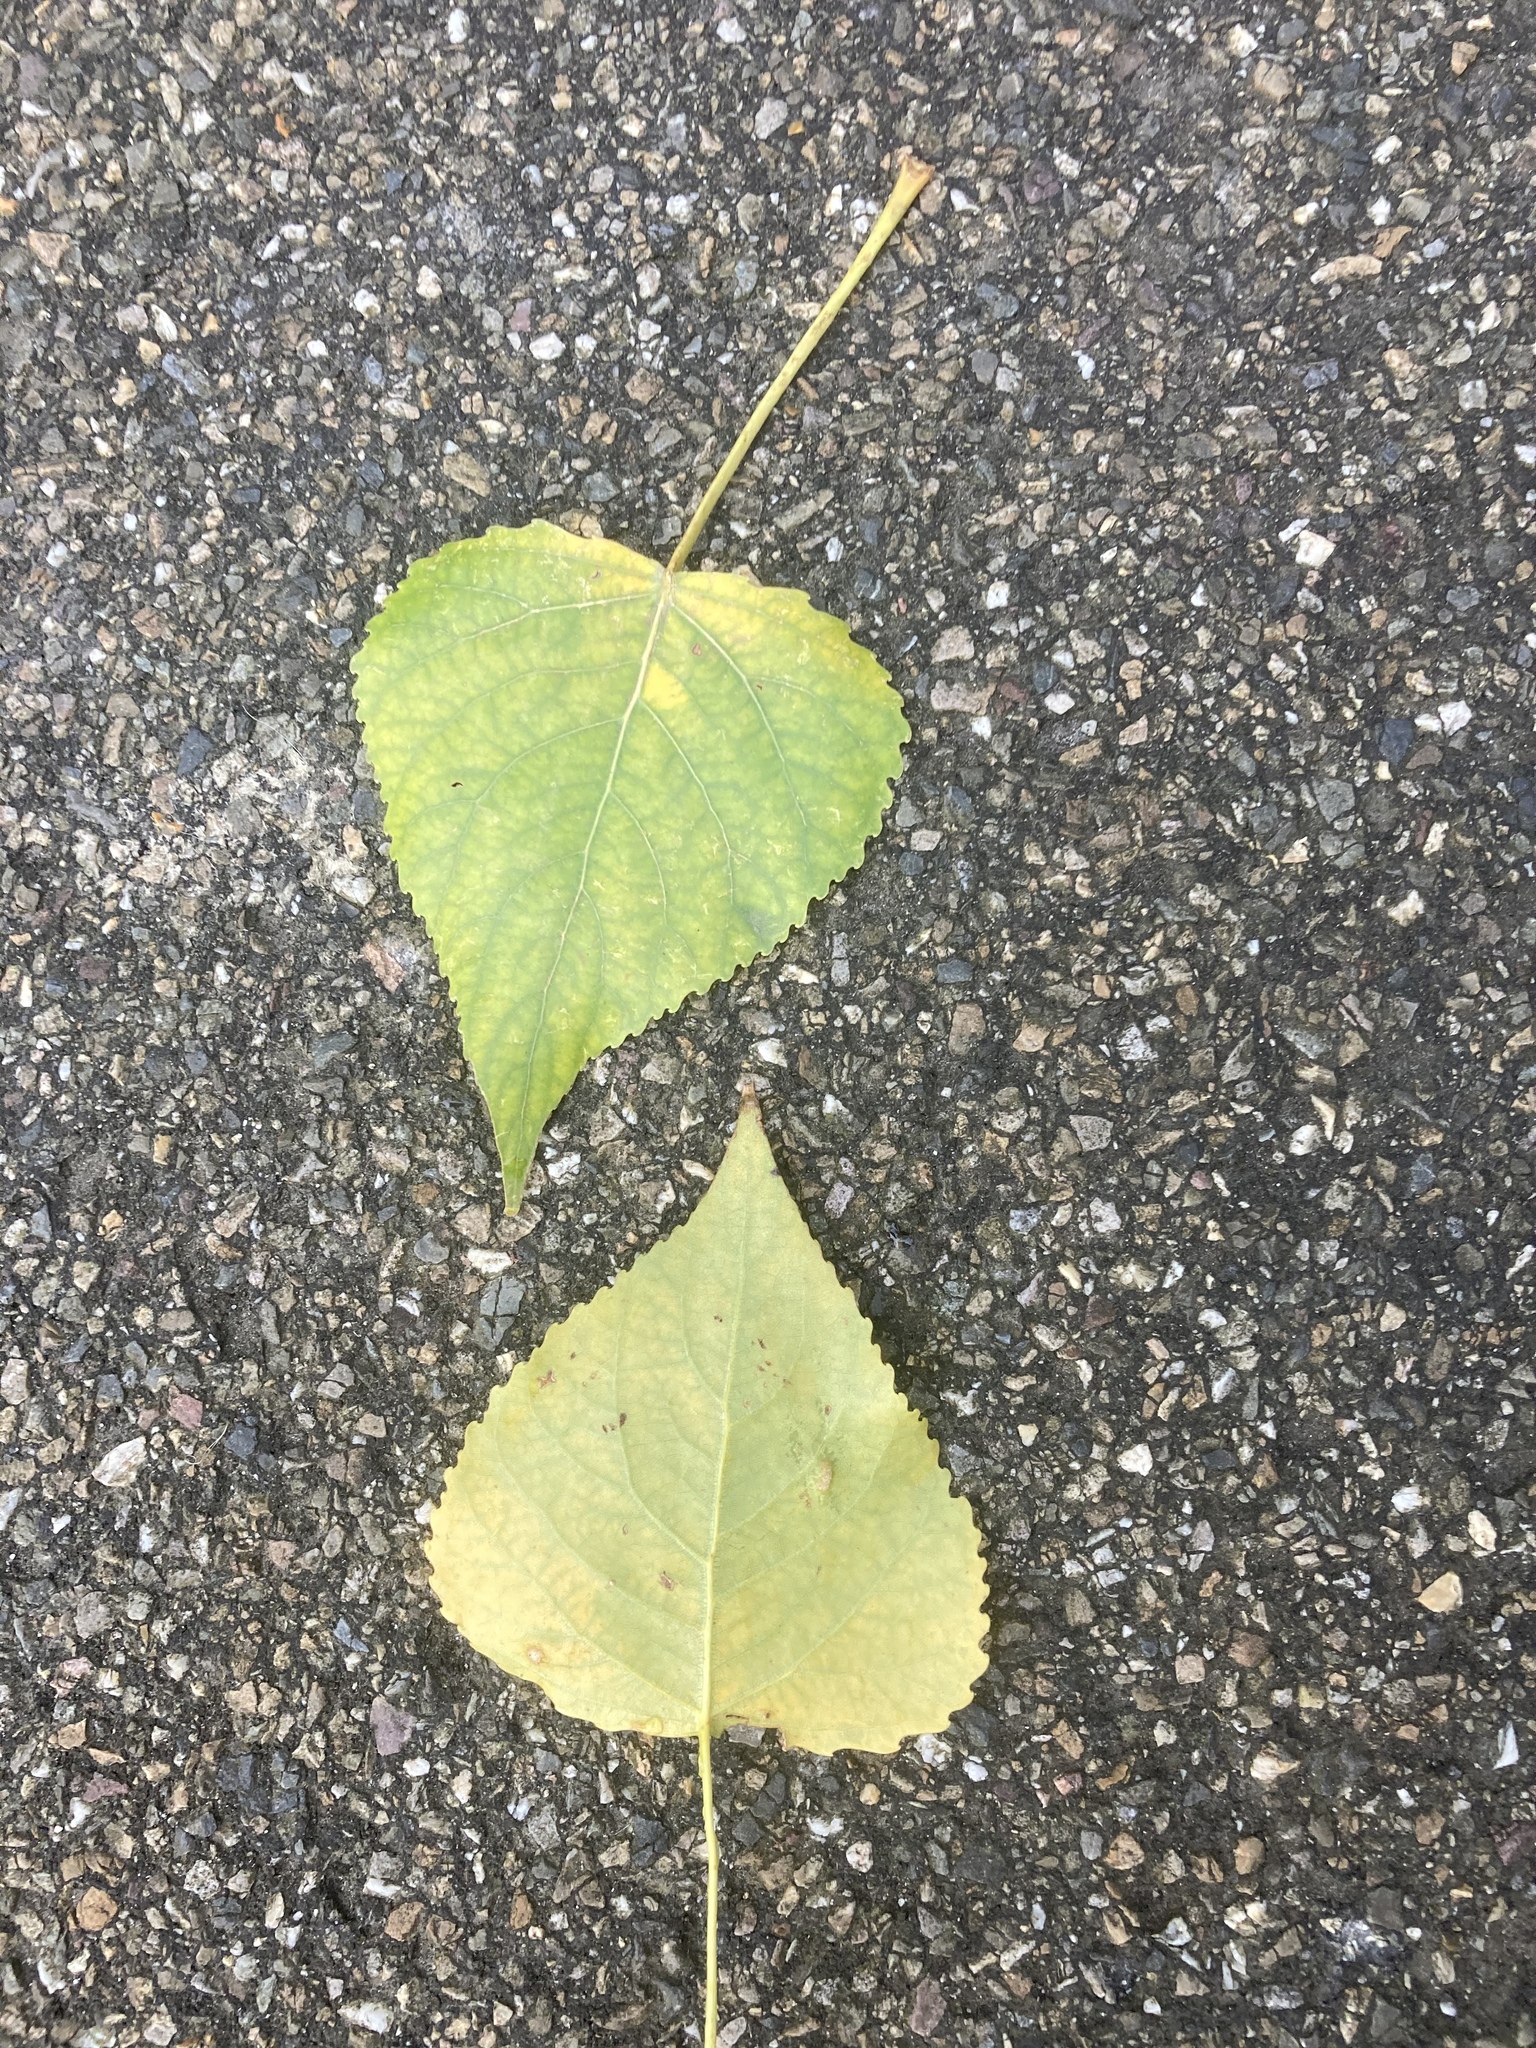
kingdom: Plantae
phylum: Tracheophyta
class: Magnoliopsida
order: Malpighiales
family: Salicaceae
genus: Populus
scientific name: Populus canadensis
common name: Carolina poplar
